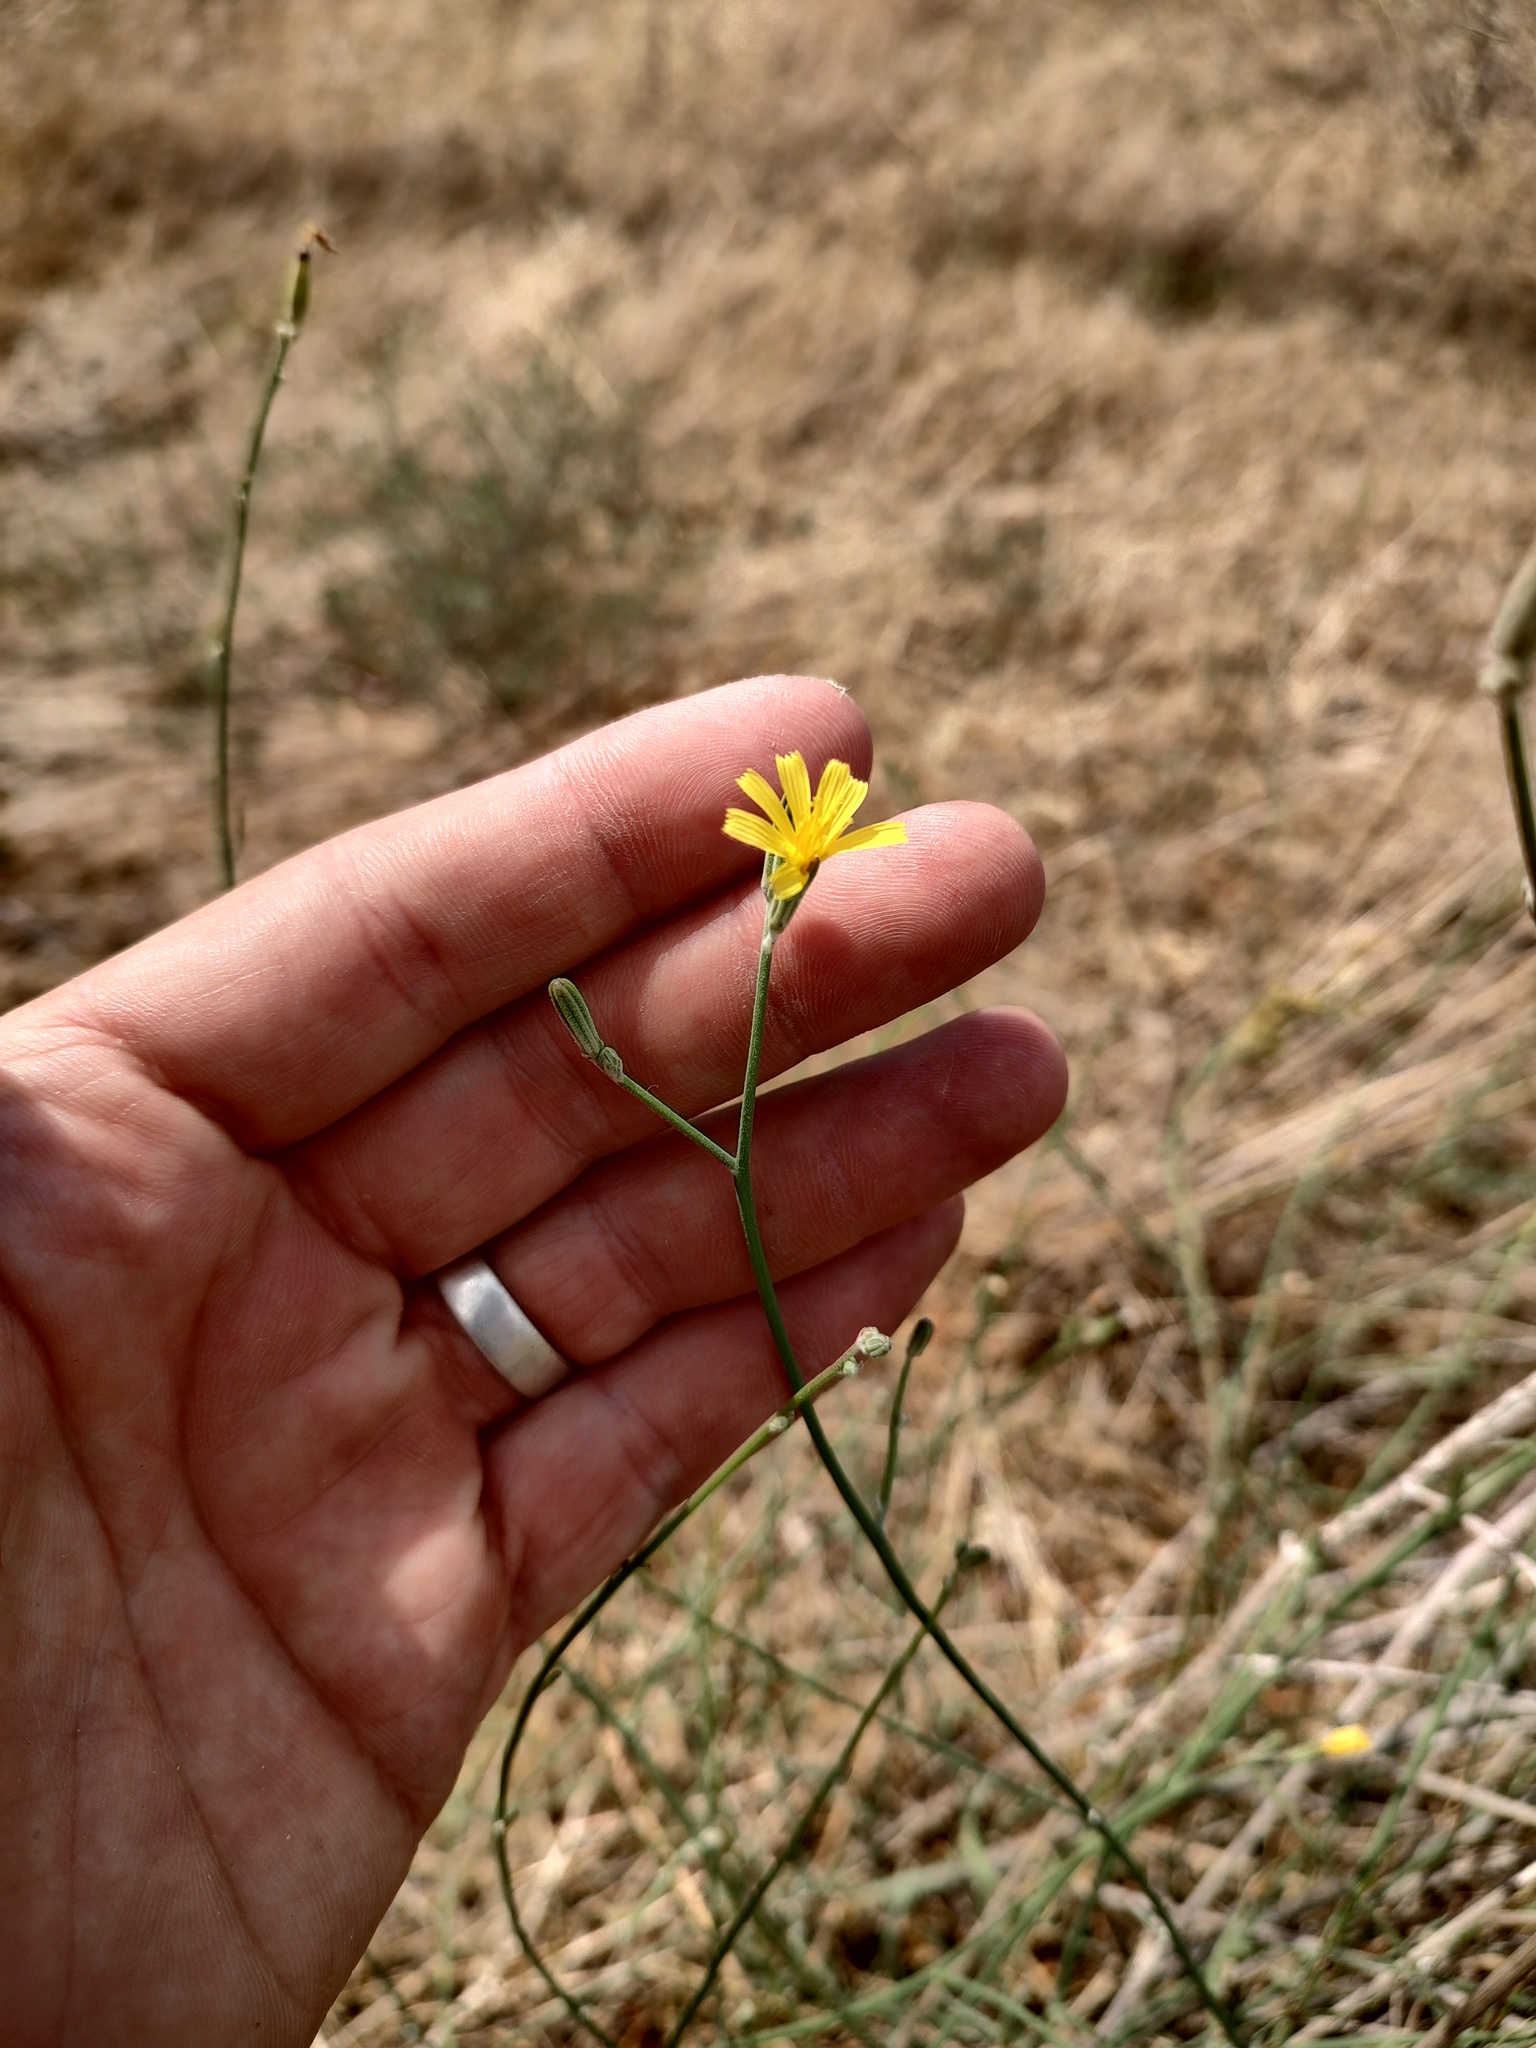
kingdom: Plantae
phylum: Tracheophyta
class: Magnoliopsida
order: Asterales
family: Asteraceae
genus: Chondrilla
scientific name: Chondrilla juncea
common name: Skeleton weed
